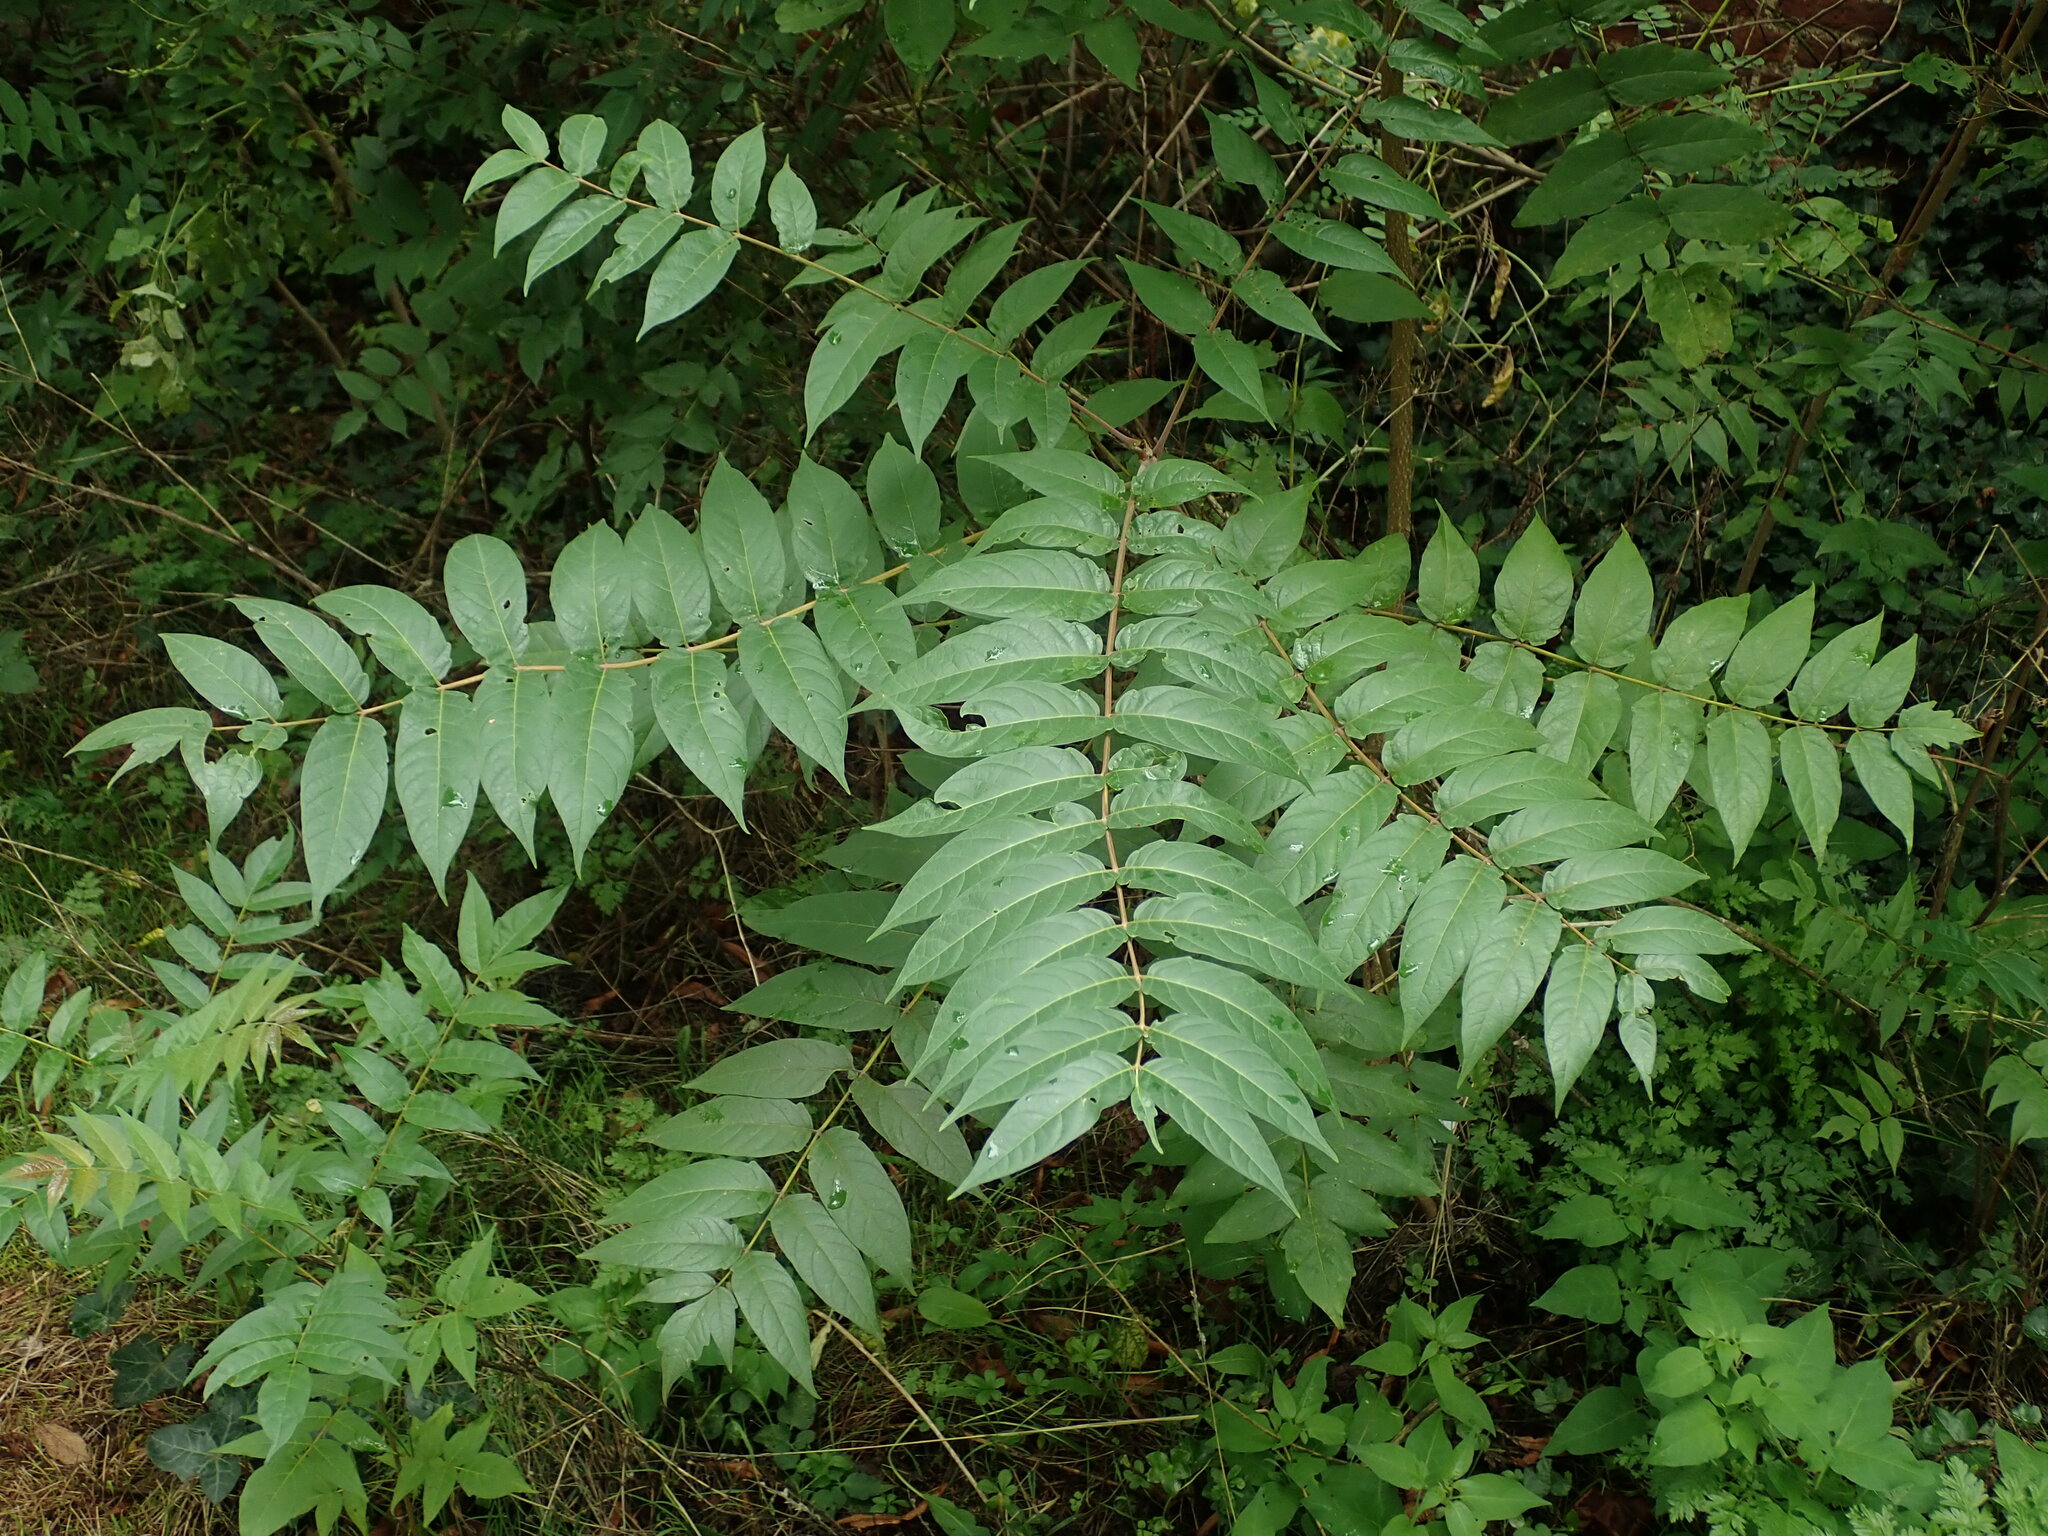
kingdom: Plantae
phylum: Tracheophyta
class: Magnoliopsida
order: Sapindales
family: Simaroubaceae
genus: Ailanthus
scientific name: Ailanthus altissima
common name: Tree-of-heaven
